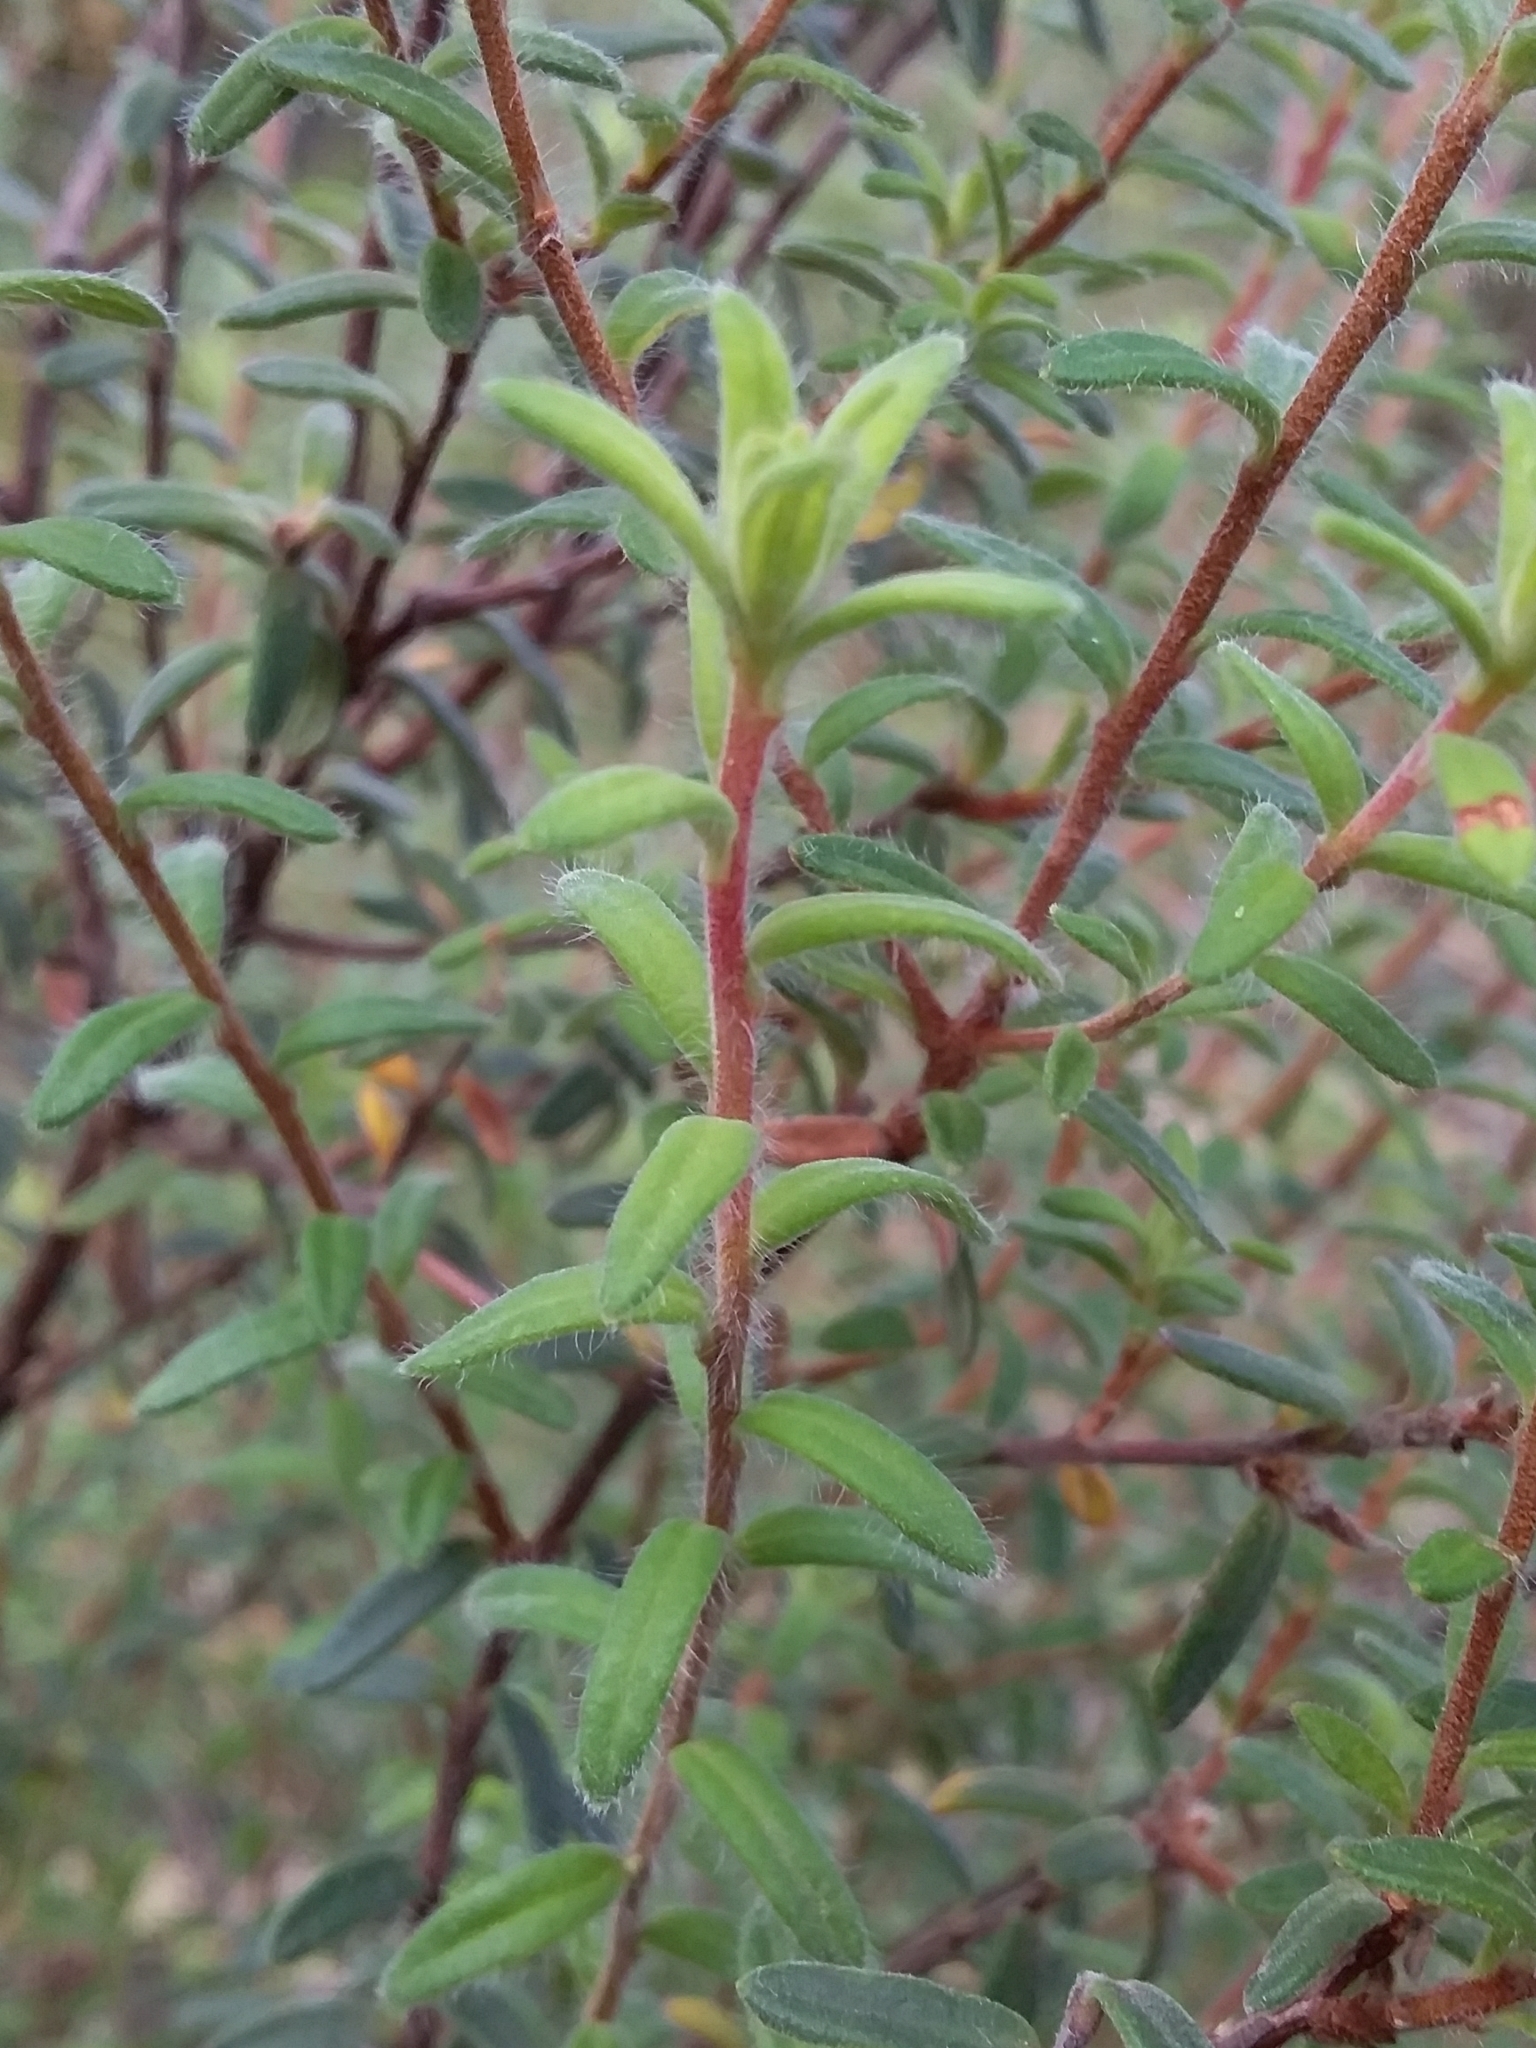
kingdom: Plantae
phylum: Tracheophyta
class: Magnoliopsida
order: Dilleniales
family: Dilleniaceae
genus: Hibbertia
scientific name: Hibbertia crinita
